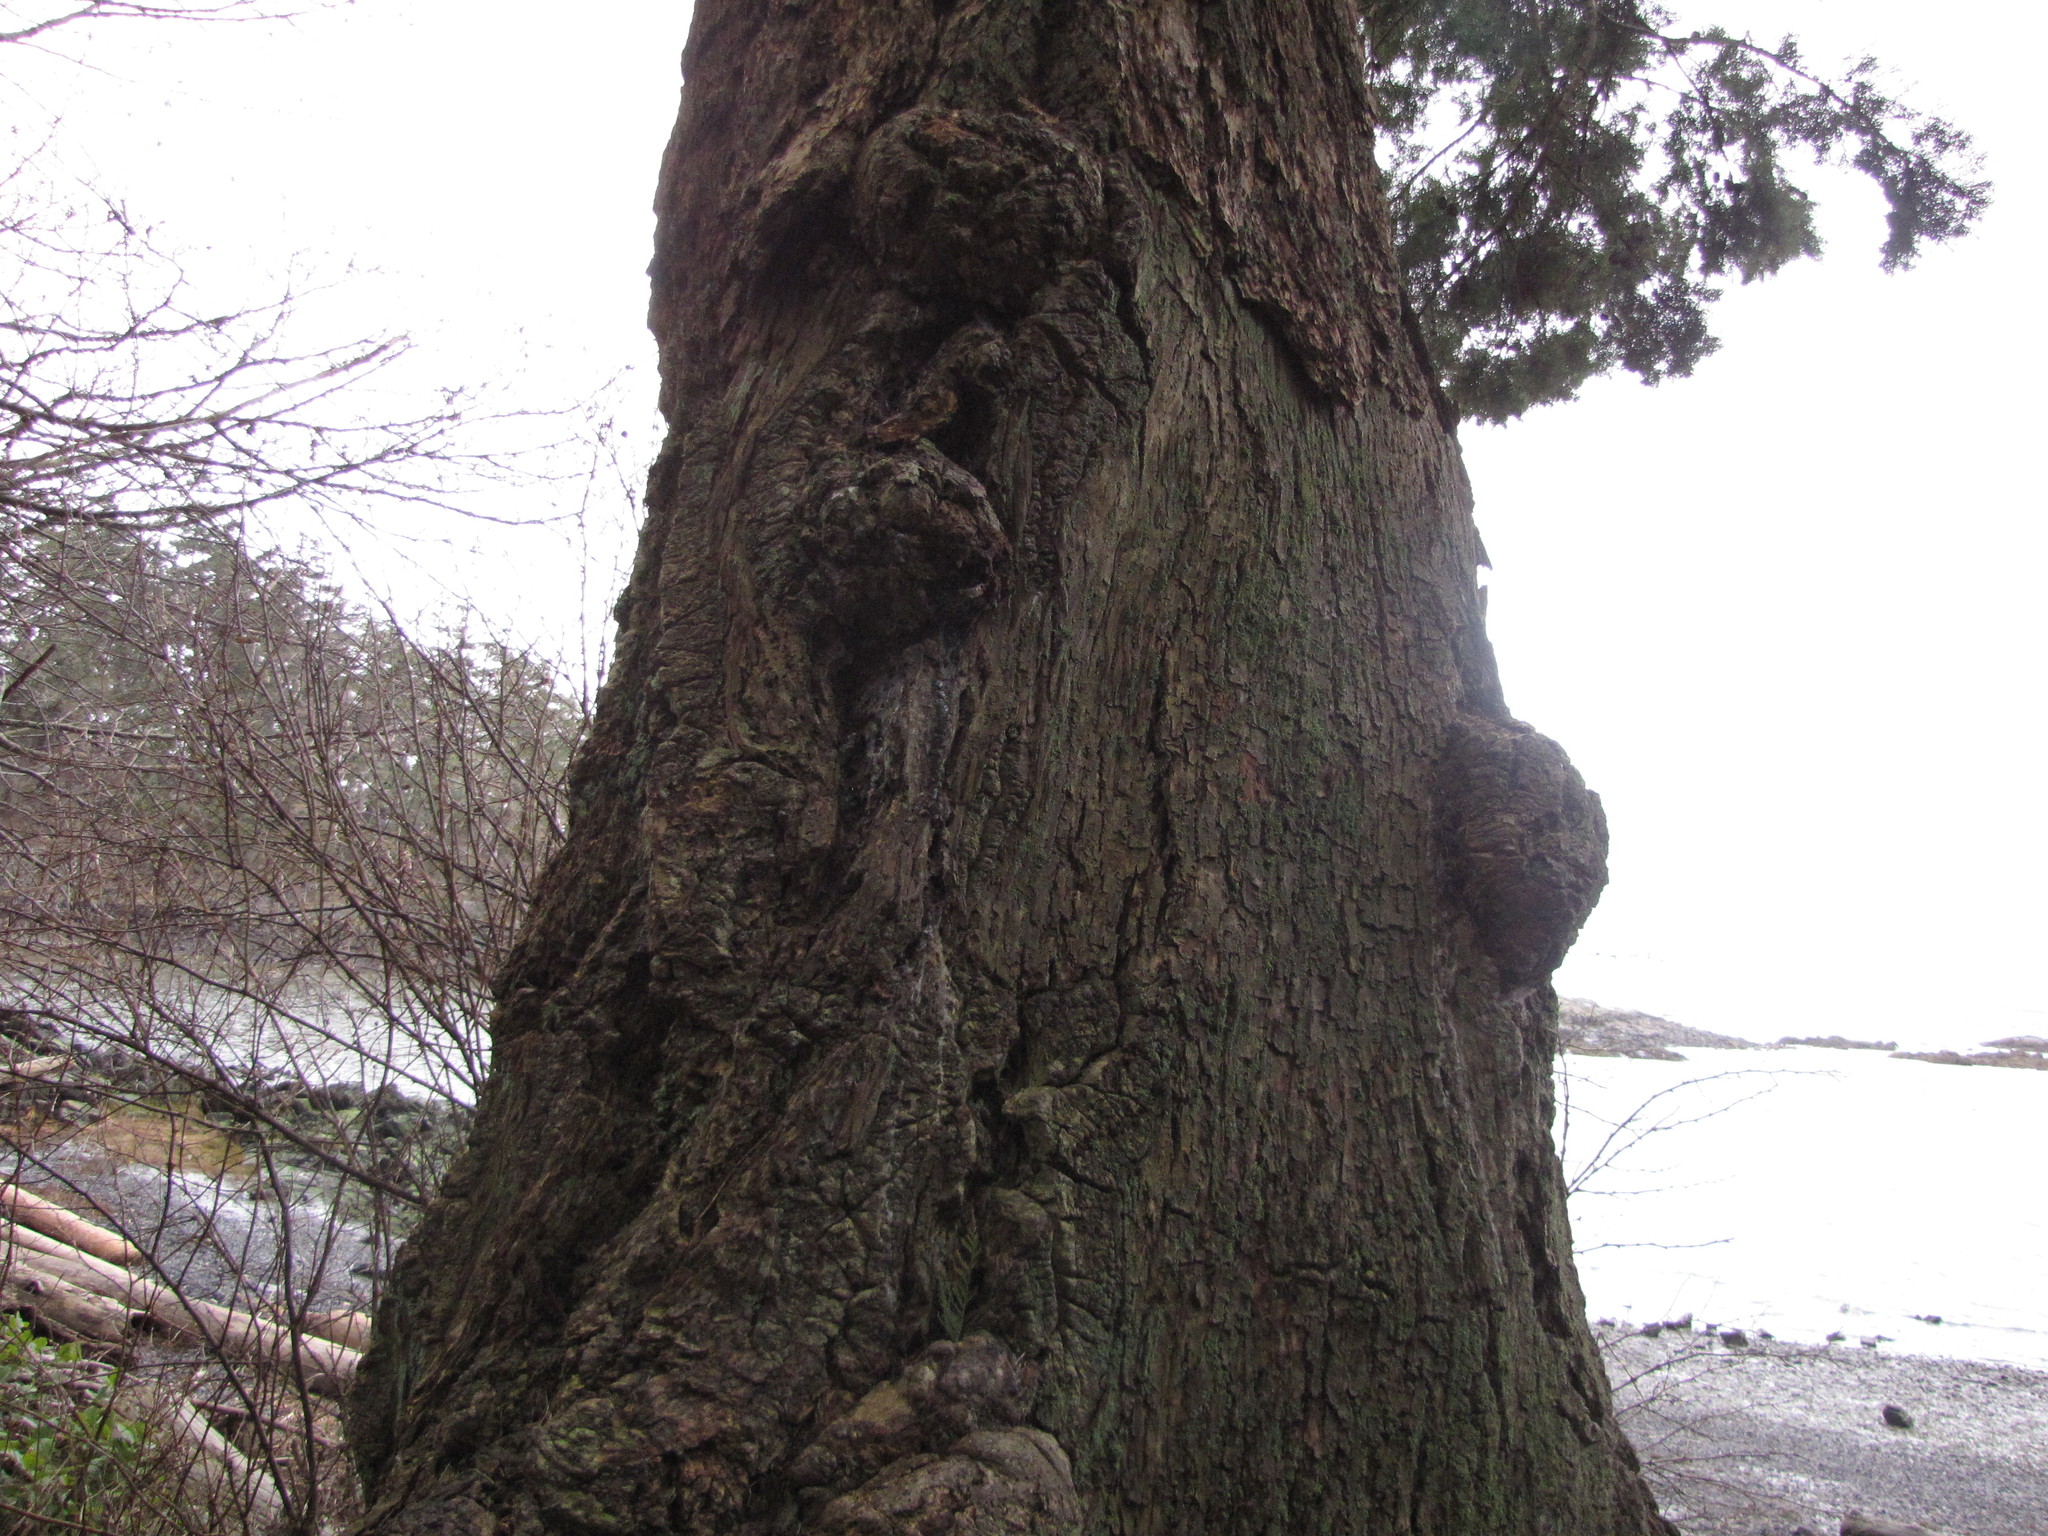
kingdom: Bacteria
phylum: Proteobacteria
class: Alphaproteobacteria
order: Rhizobiales
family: Rhizobiaceae
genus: Rhizobium
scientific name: Rhizobium Agrobacterium radiobacter
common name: Bacterial crown gall
